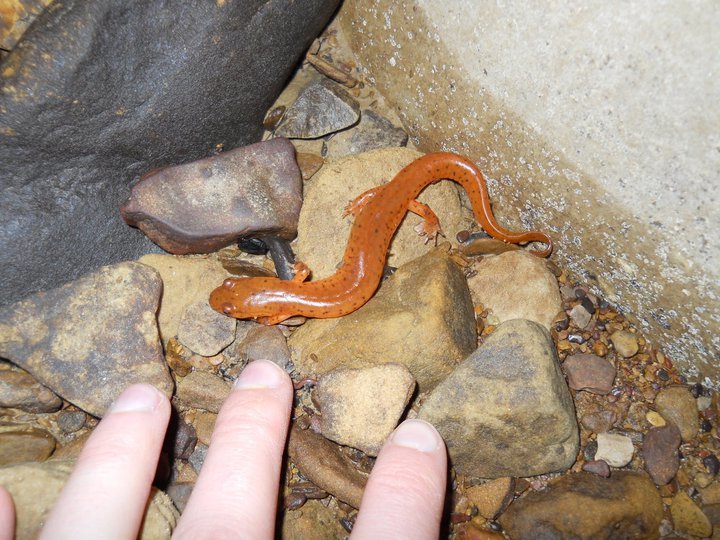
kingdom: Animalia
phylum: Chordata
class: Amphibia
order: Caudata
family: Plethodontidae
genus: Gyrinophilus
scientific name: Gyrinophilus porphyriticus
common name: Spring salamander
